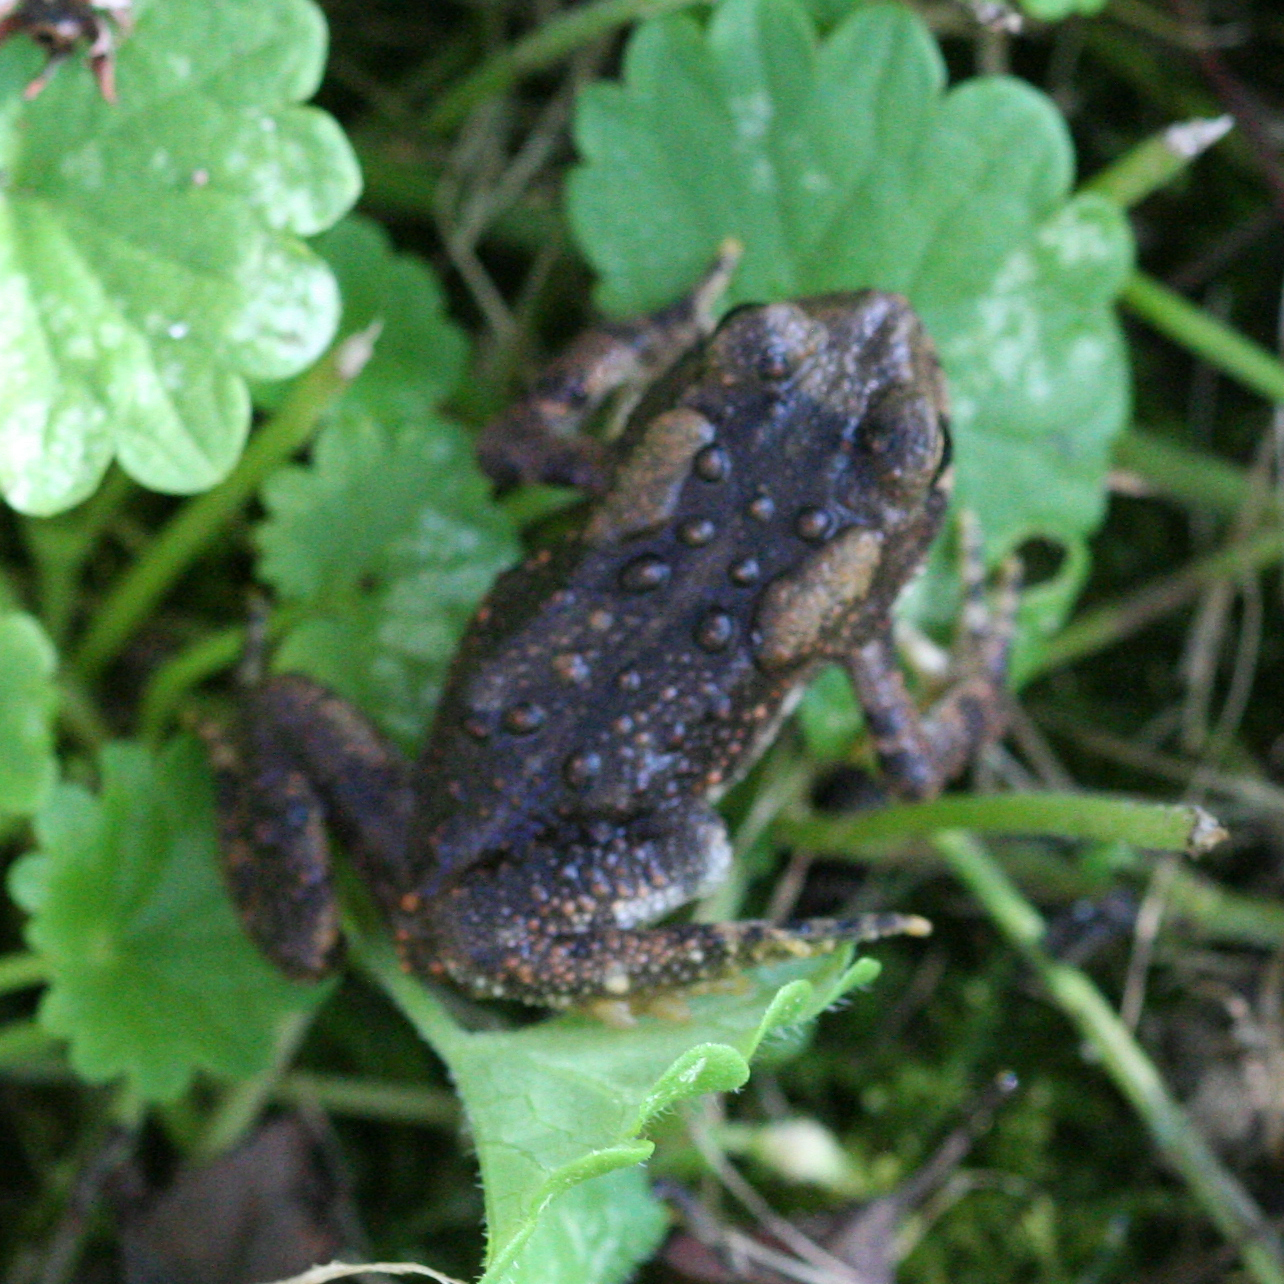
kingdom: Animalia
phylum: Chordata
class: Amphibia
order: Anura
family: Bufonidae
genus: Anaxyrus
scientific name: Anaxyrus americanus
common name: American toad
